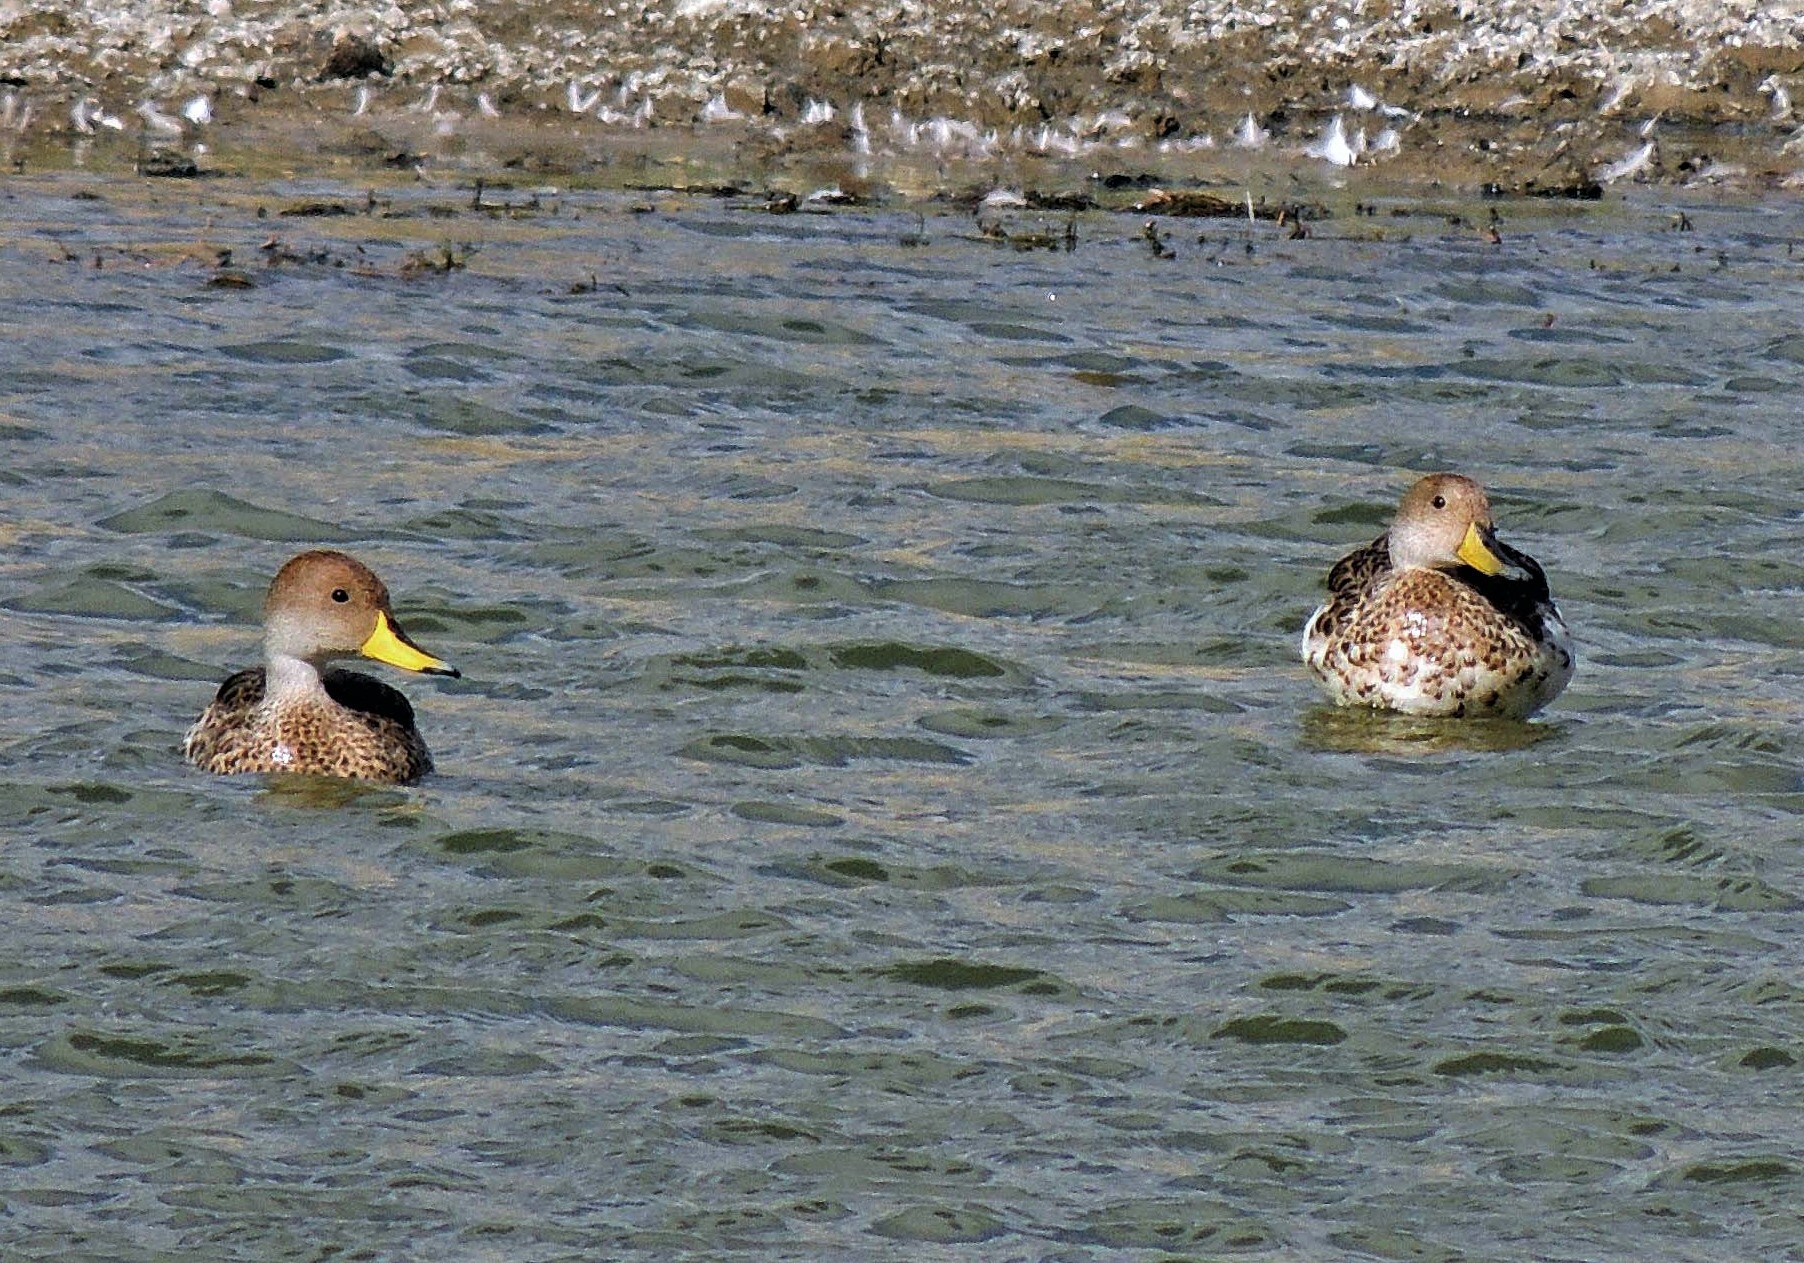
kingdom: Animalia
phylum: Chordata
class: Aves
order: Anseriformes
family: Anatidae
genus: Anas
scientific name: Anas georgica
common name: Yellow-billed pintail
